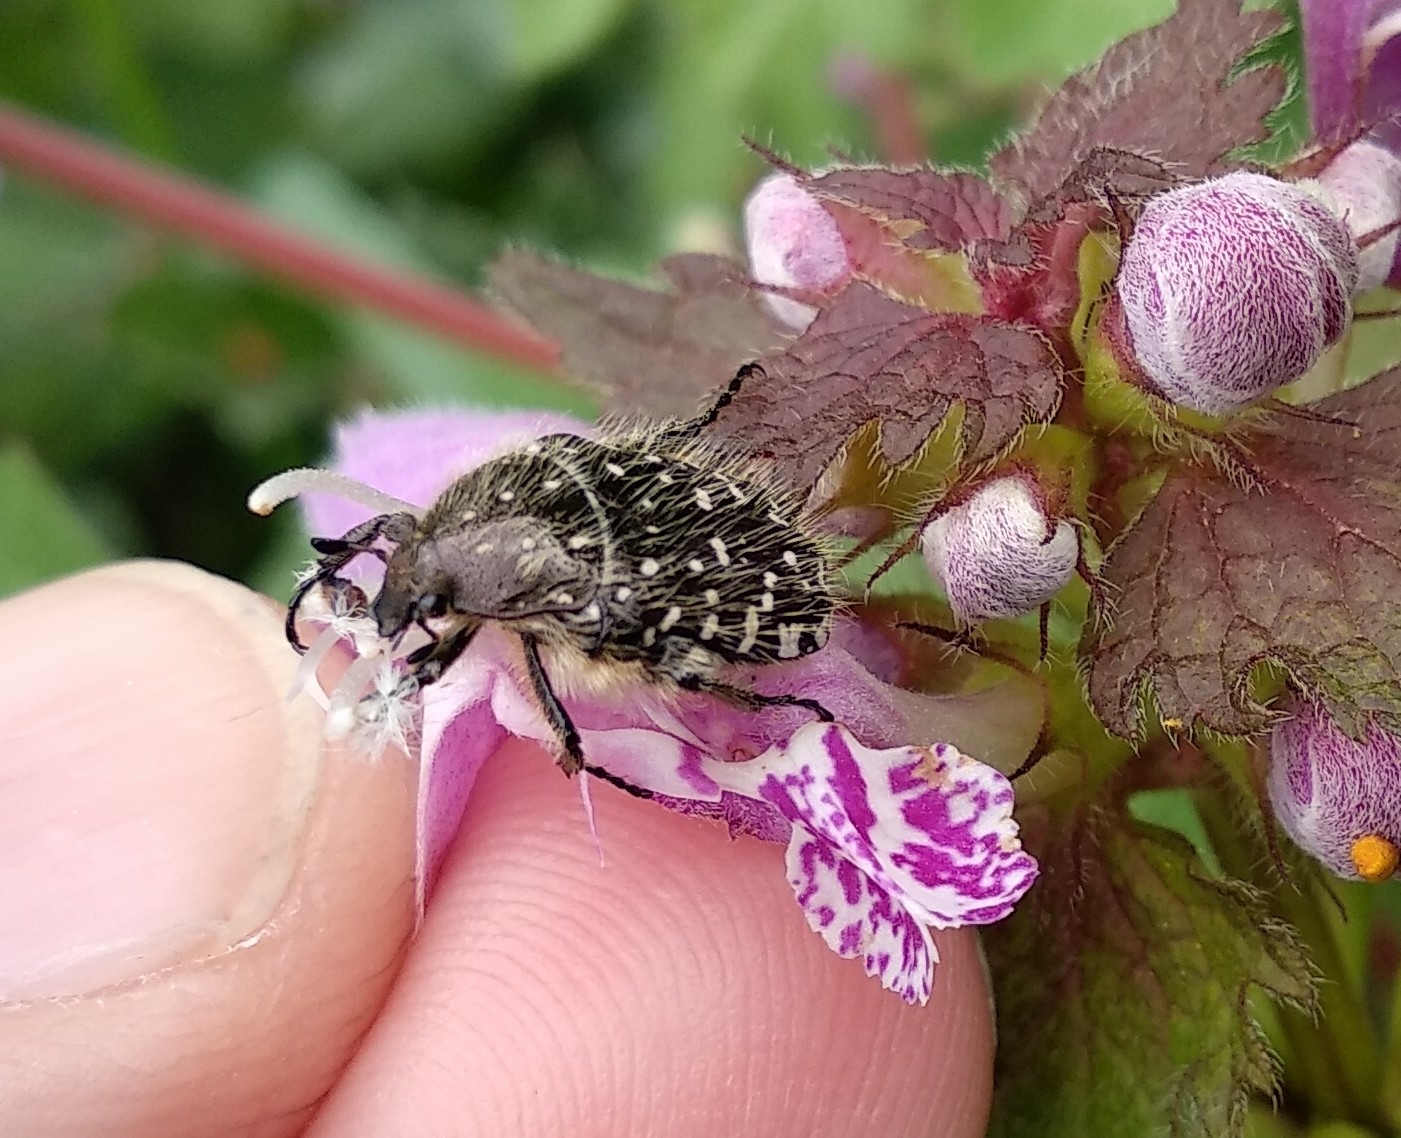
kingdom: Animalia
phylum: Arthropoda
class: Insecta
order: Coleoptera
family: Scarabaeidae
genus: Oxythyrea
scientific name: Oxythyrea funesta
